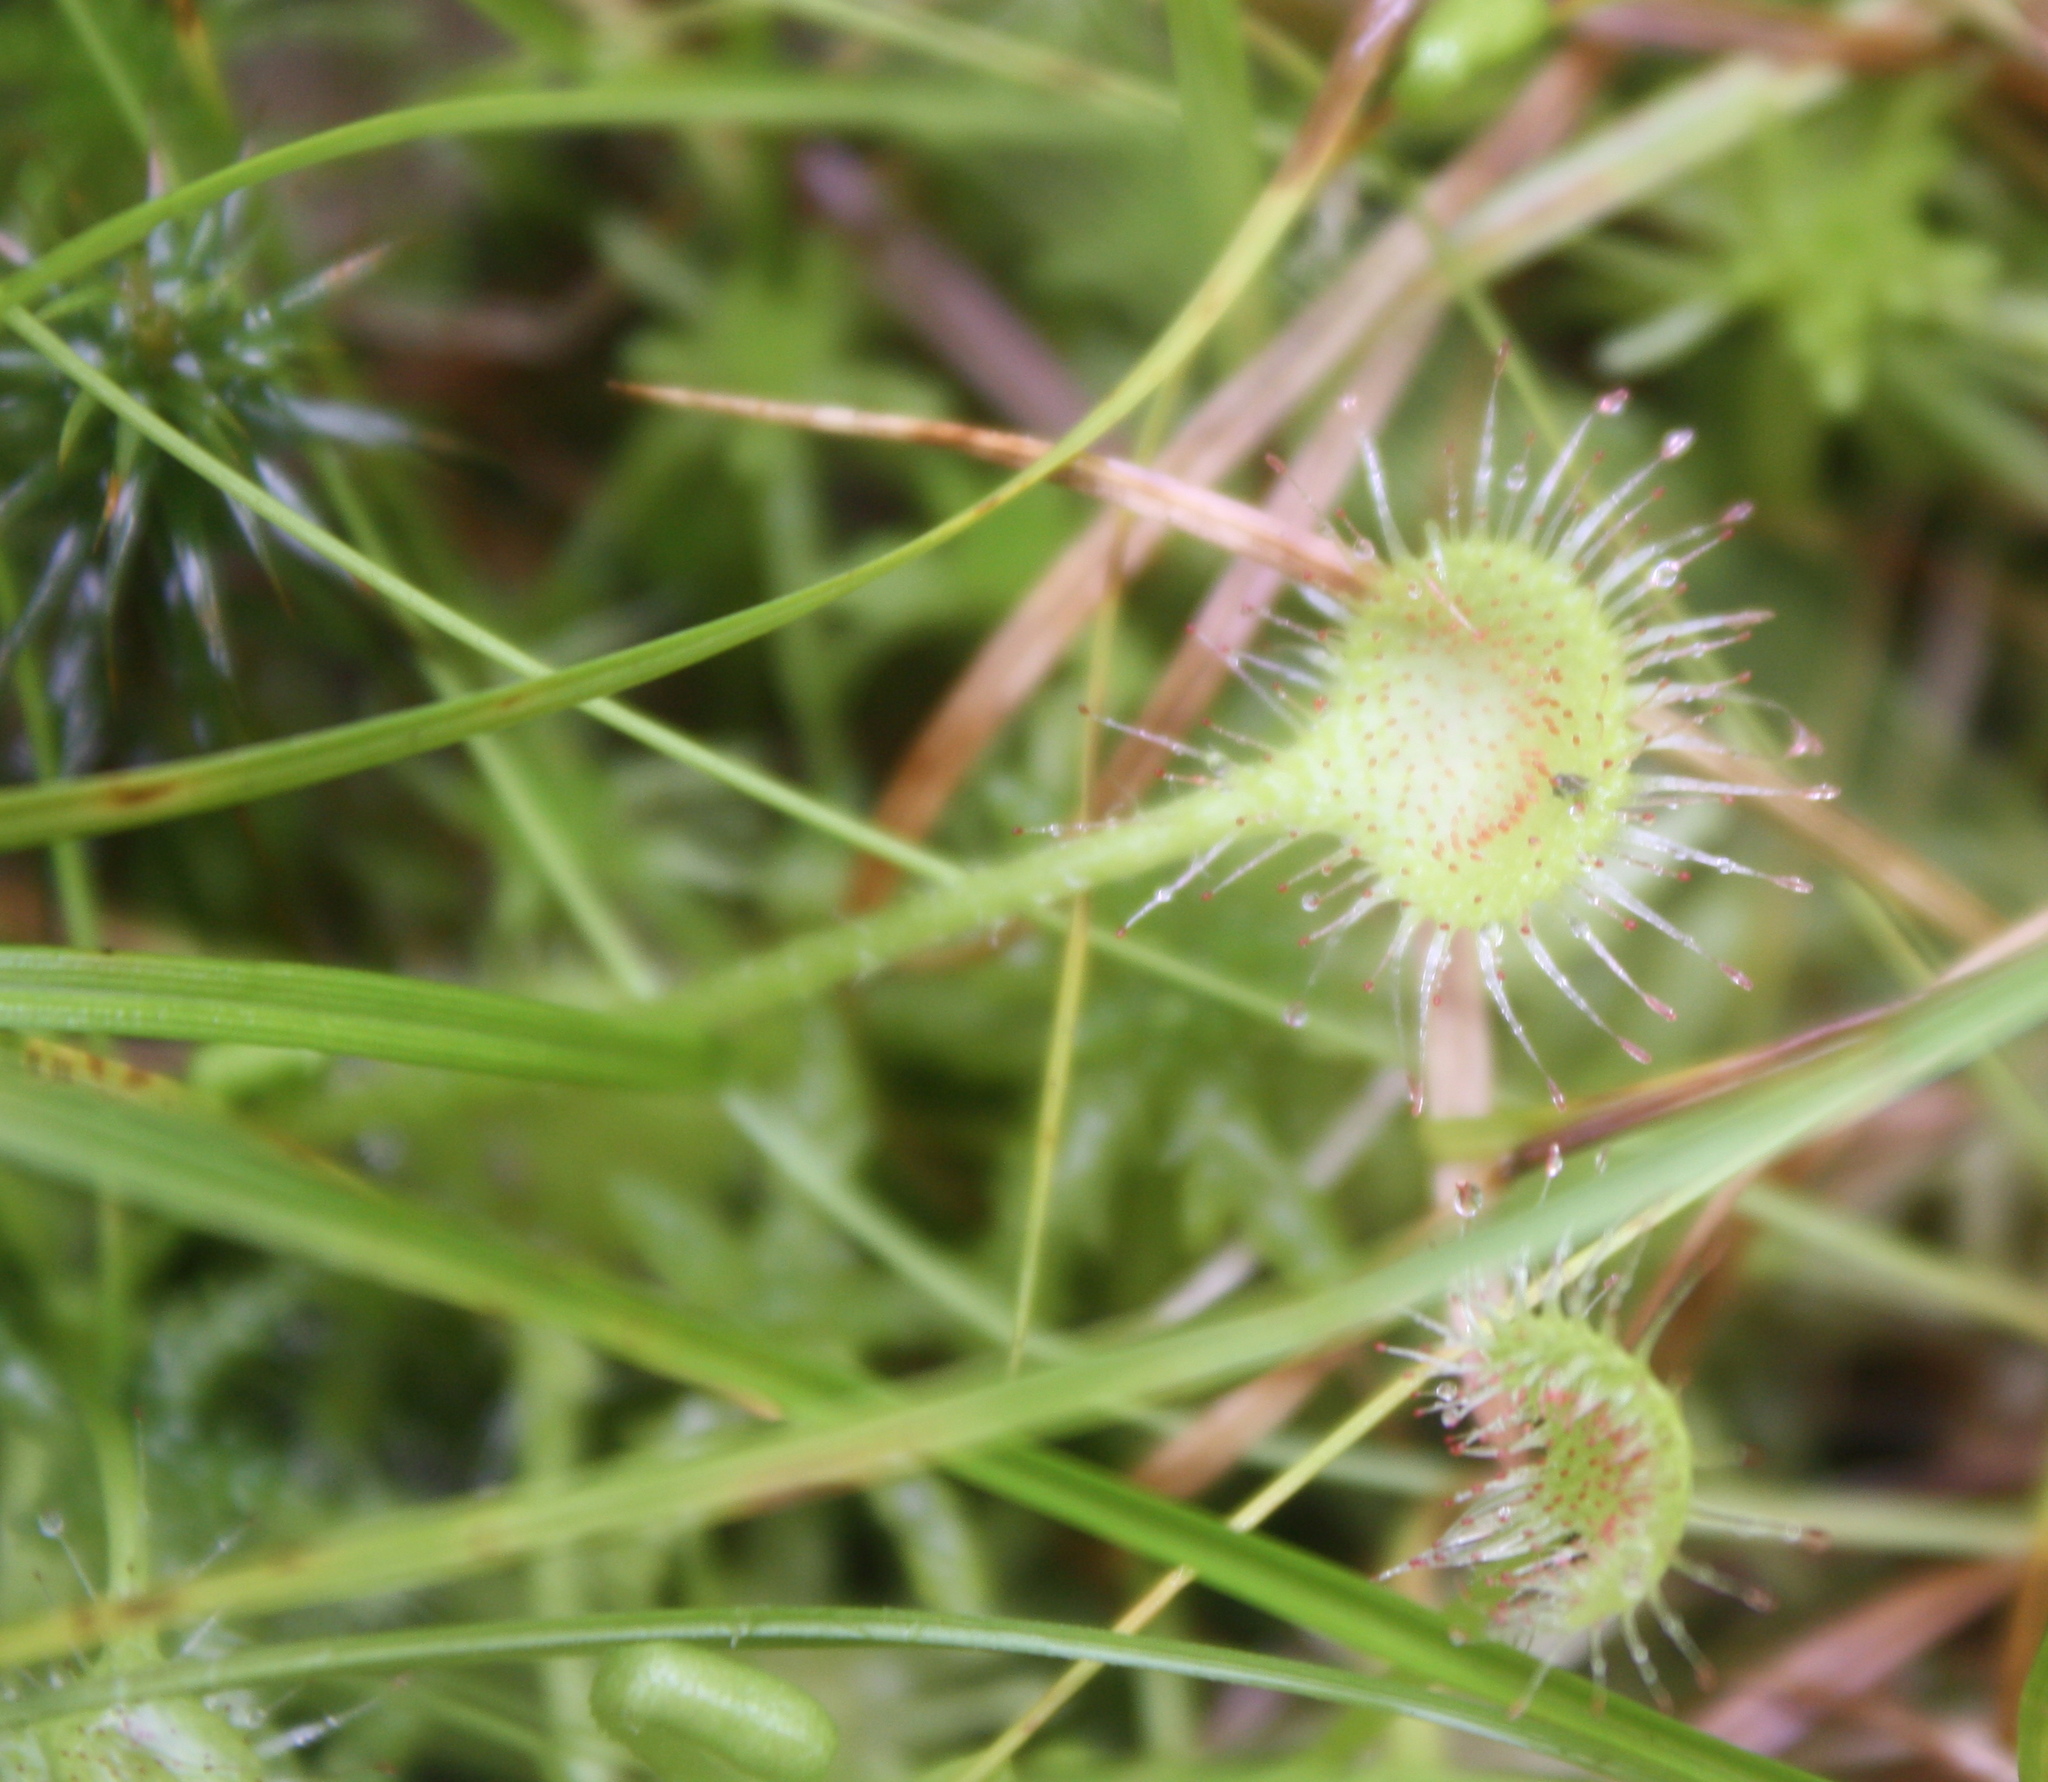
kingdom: Plantae
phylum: Tracheophyta
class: Magnoliopsida
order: Caryophyllales
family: Droseraceae
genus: Drosera
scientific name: Drosera rotundifolia
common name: Round-leaved sundew
